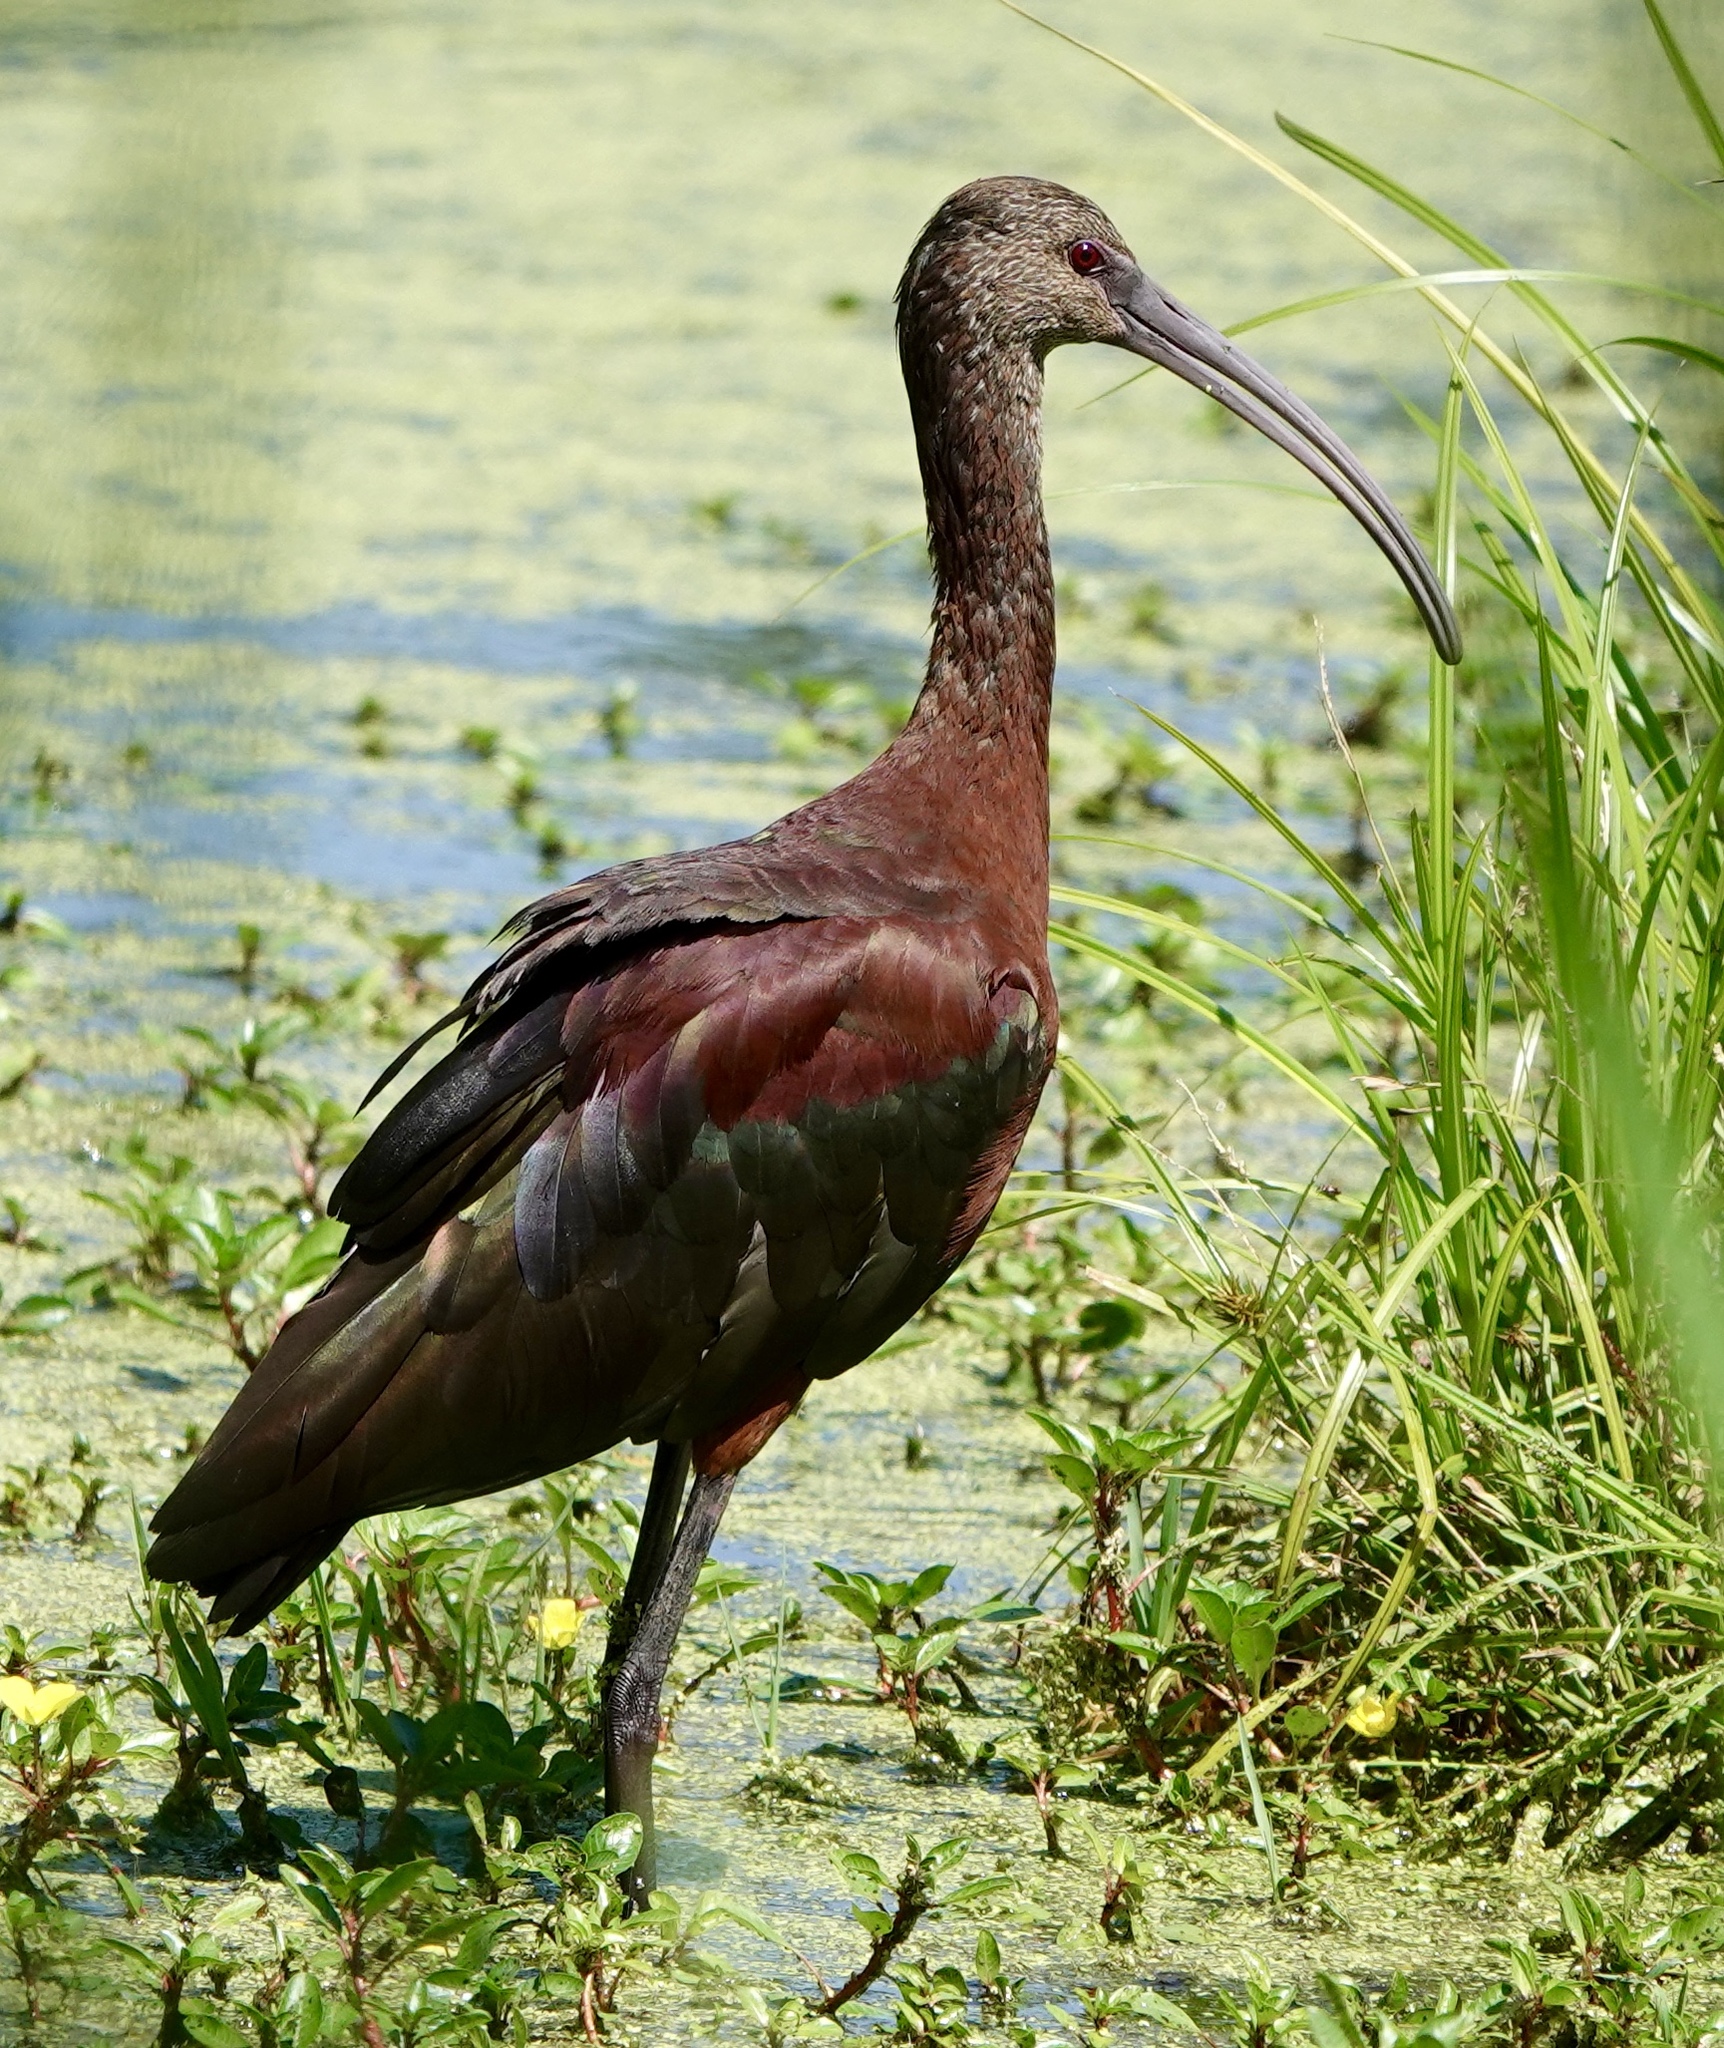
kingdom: Animalia
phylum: Chordata
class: Aves
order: Pelecaniformes
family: Threskiornithidae
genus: Plegadis
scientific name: Plegadis chihi
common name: White-faced ibis
